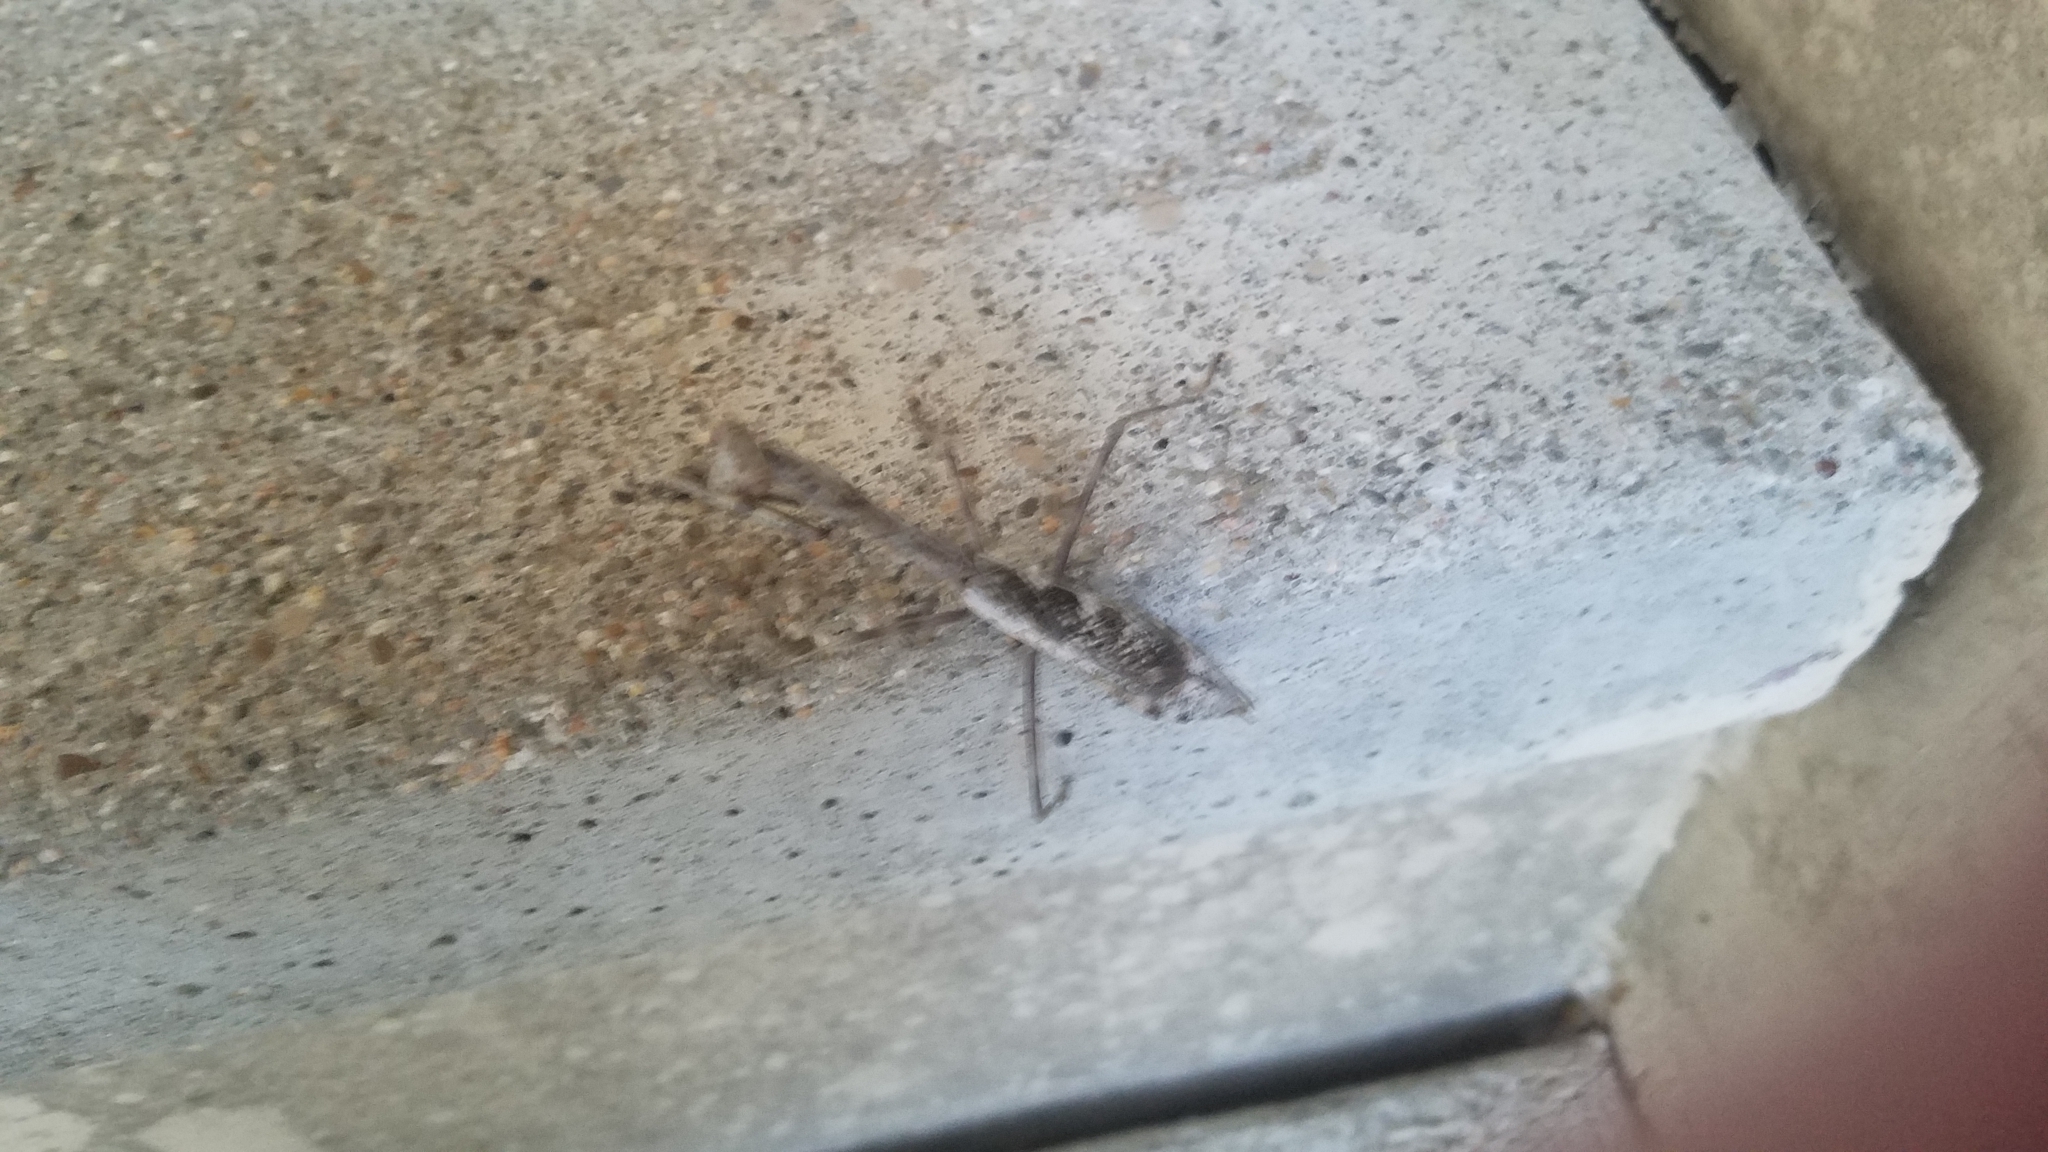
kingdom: Animalia
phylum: Arthropoda
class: Insecta
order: Mantodea
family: Mantidae
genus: Stagmomantis
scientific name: Stagmomantis carolina
